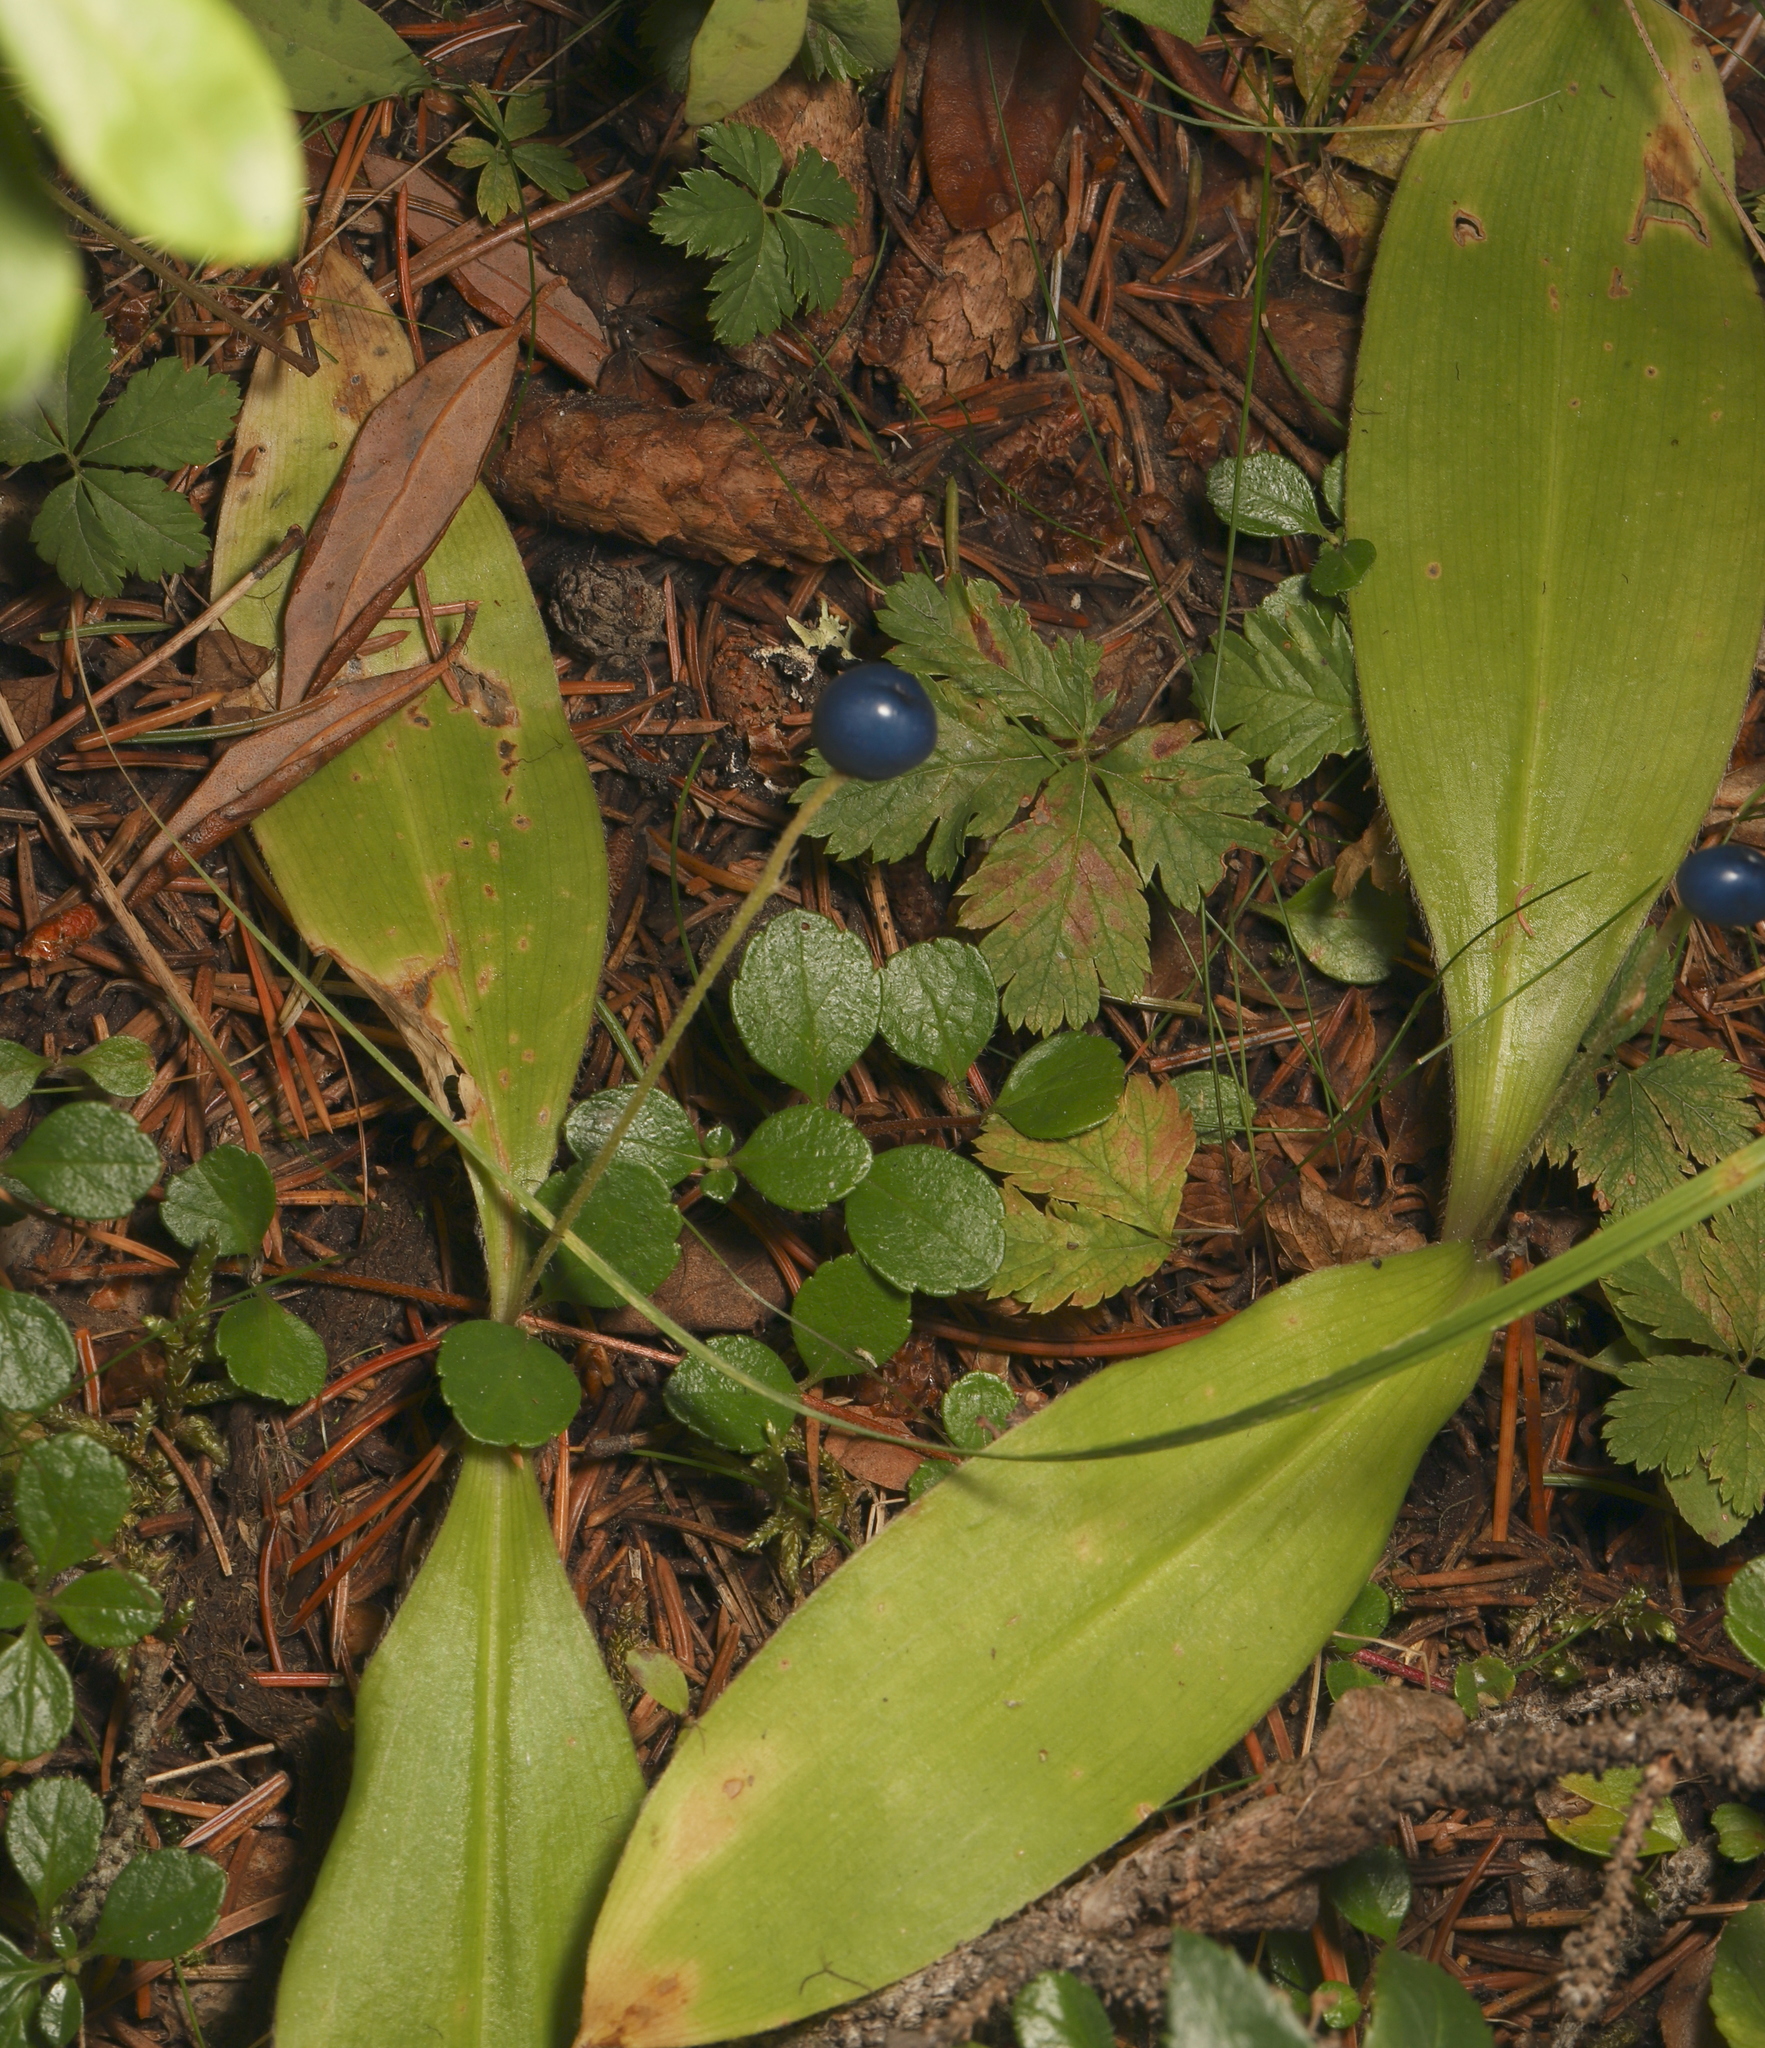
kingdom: Plantae
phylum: Tracheophyta
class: Liliopsida
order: Liliales
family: Liliaceae
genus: Clintonia
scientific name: Clintonia uniflora
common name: Queen's cup
